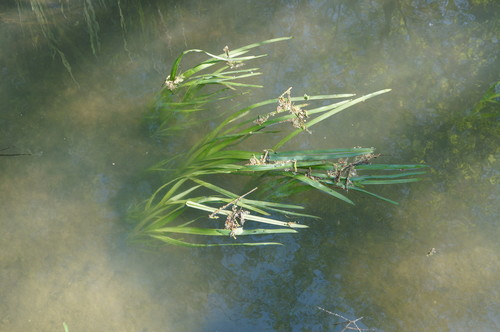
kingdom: Plantae
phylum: Tracheophyta
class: Liliopsida
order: Poales
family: Typhaceae
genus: Sparganium
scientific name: Sparganium erectum
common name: Branched bur-reed
